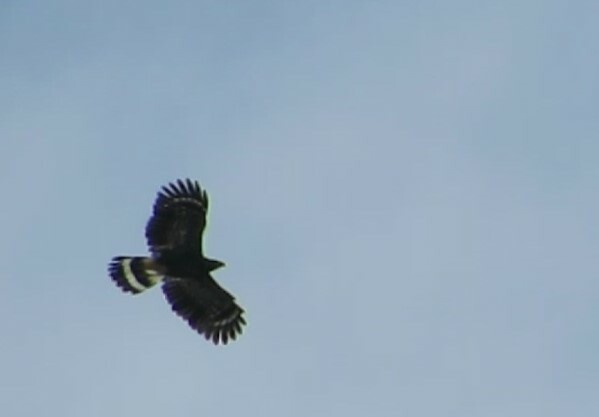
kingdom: Animalia
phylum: Chordata
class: Aves
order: Accipitriformes
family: Accipitridae
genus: Geranospiza
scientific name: Geranospiza caerulescens
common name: Crane hawk
